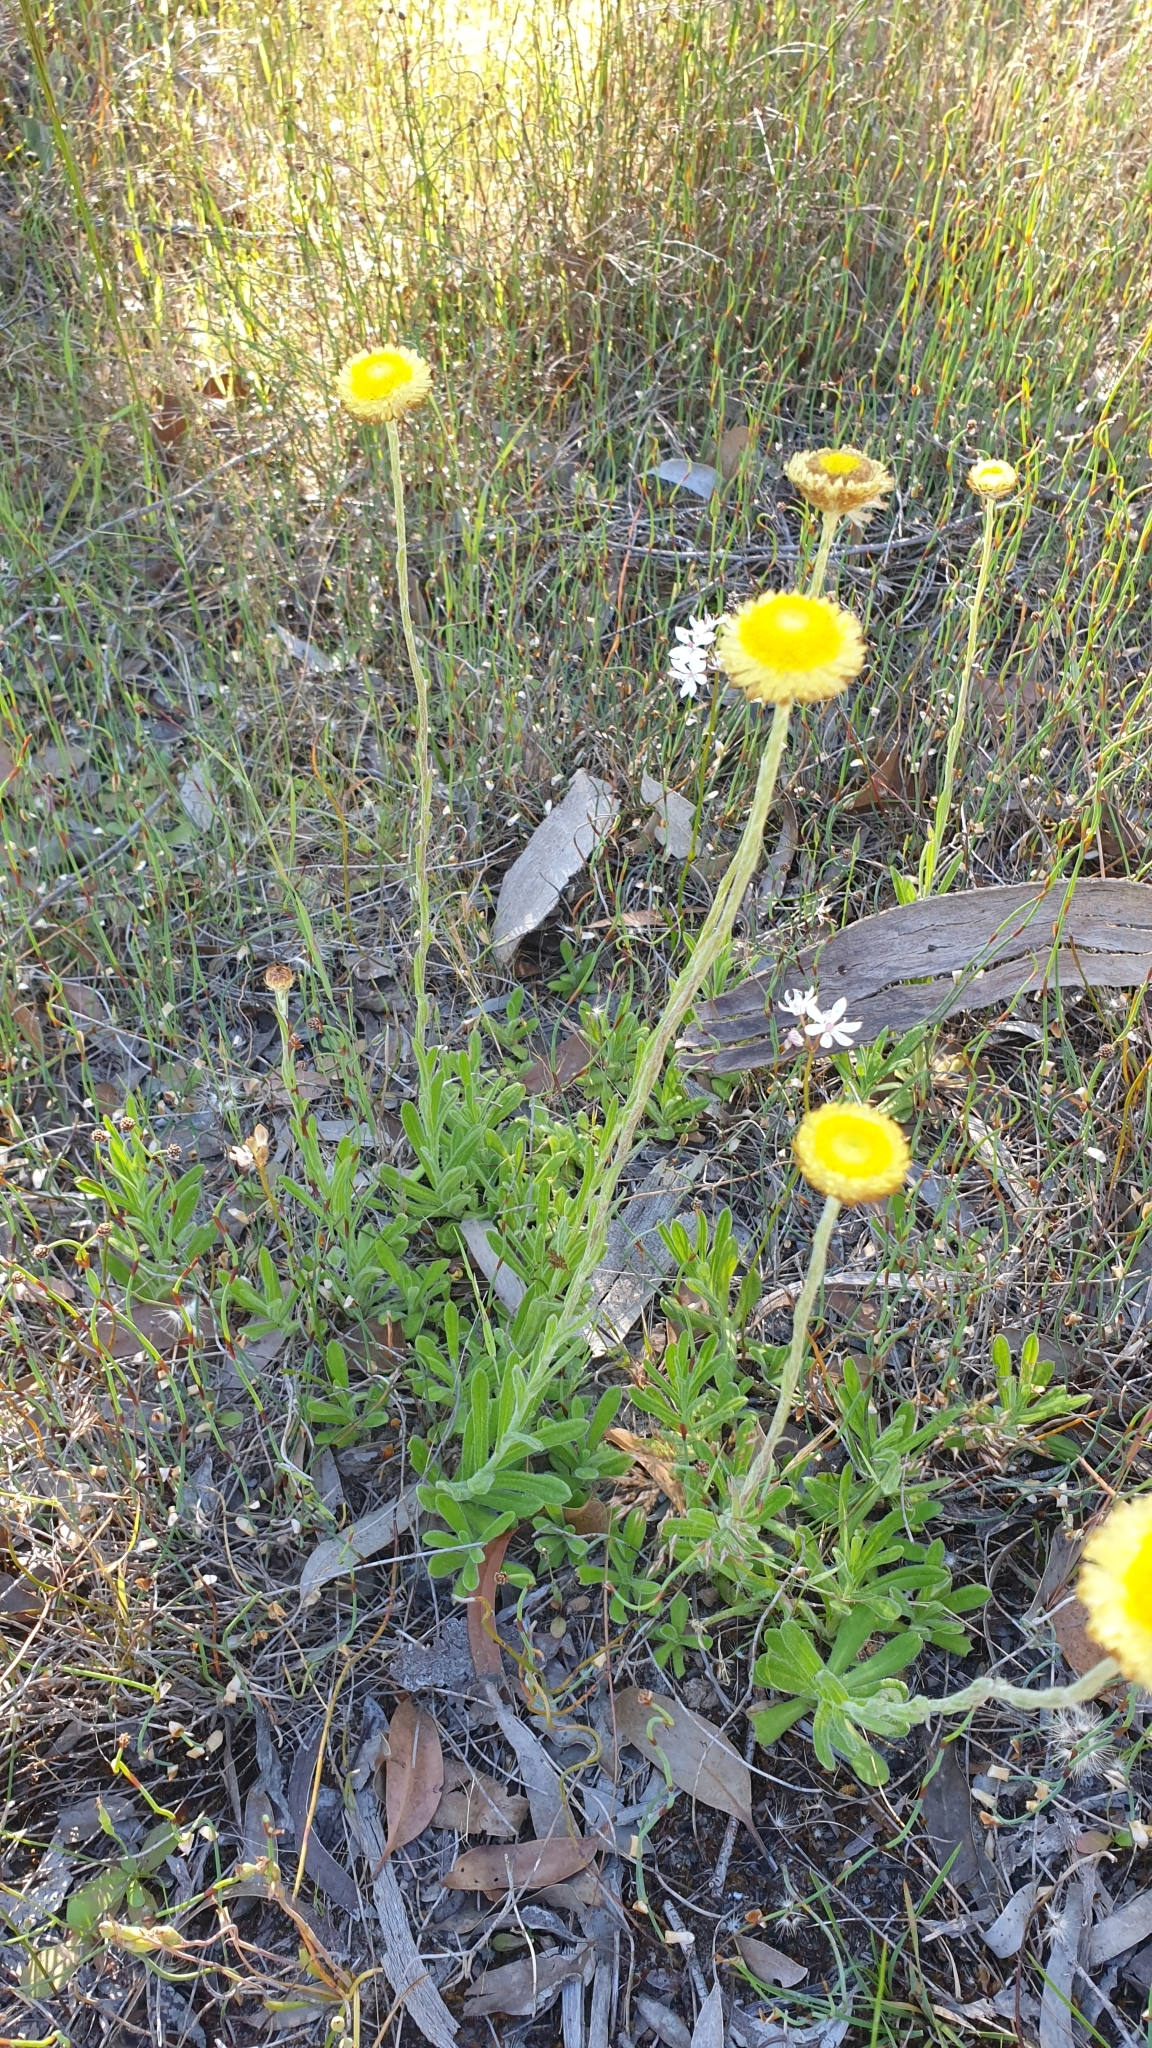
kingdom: Plantae
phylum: Tracheophyta
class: Magnoliopsida
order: Asterales
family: Asteraceae
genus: Coronidium
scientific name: Coronidium scorpioides
